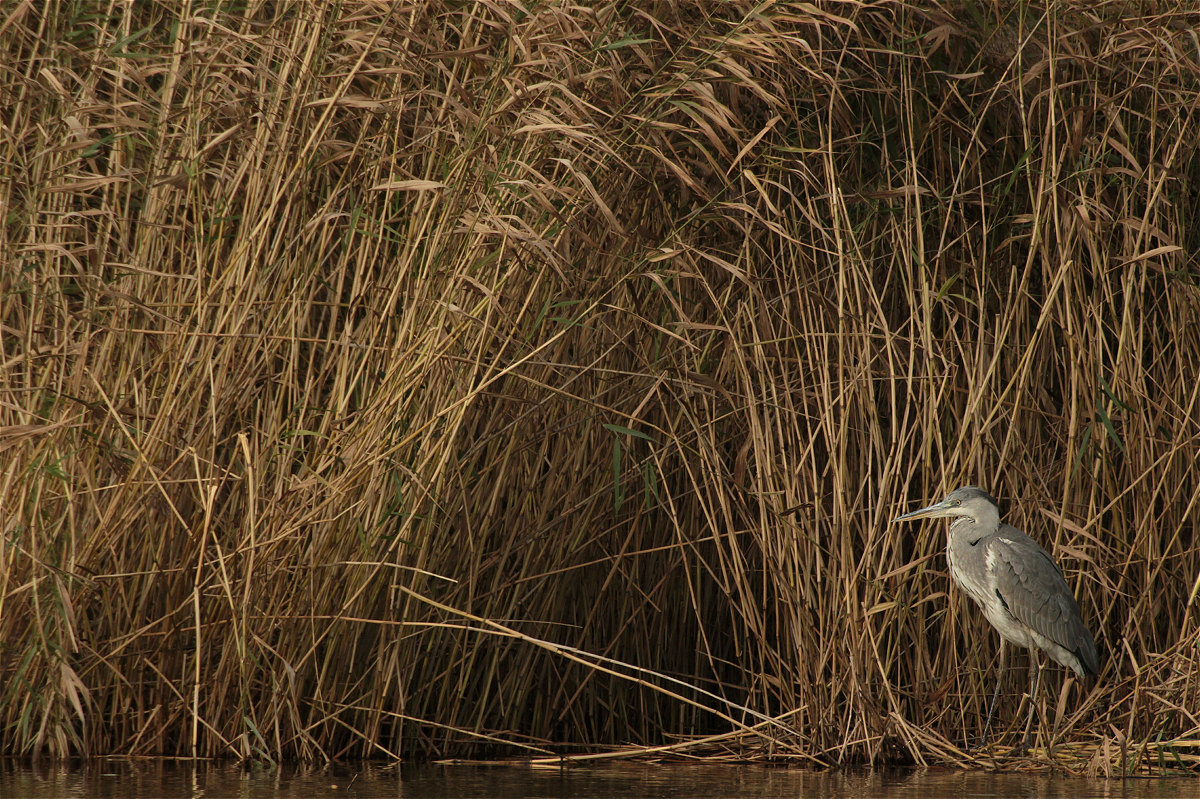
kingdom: Animalia
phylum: Chordata
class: Aves
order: Pelecaniformes
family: Ardeidae
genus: Ardea
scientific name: Ardea cinerea
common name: Grey heron
